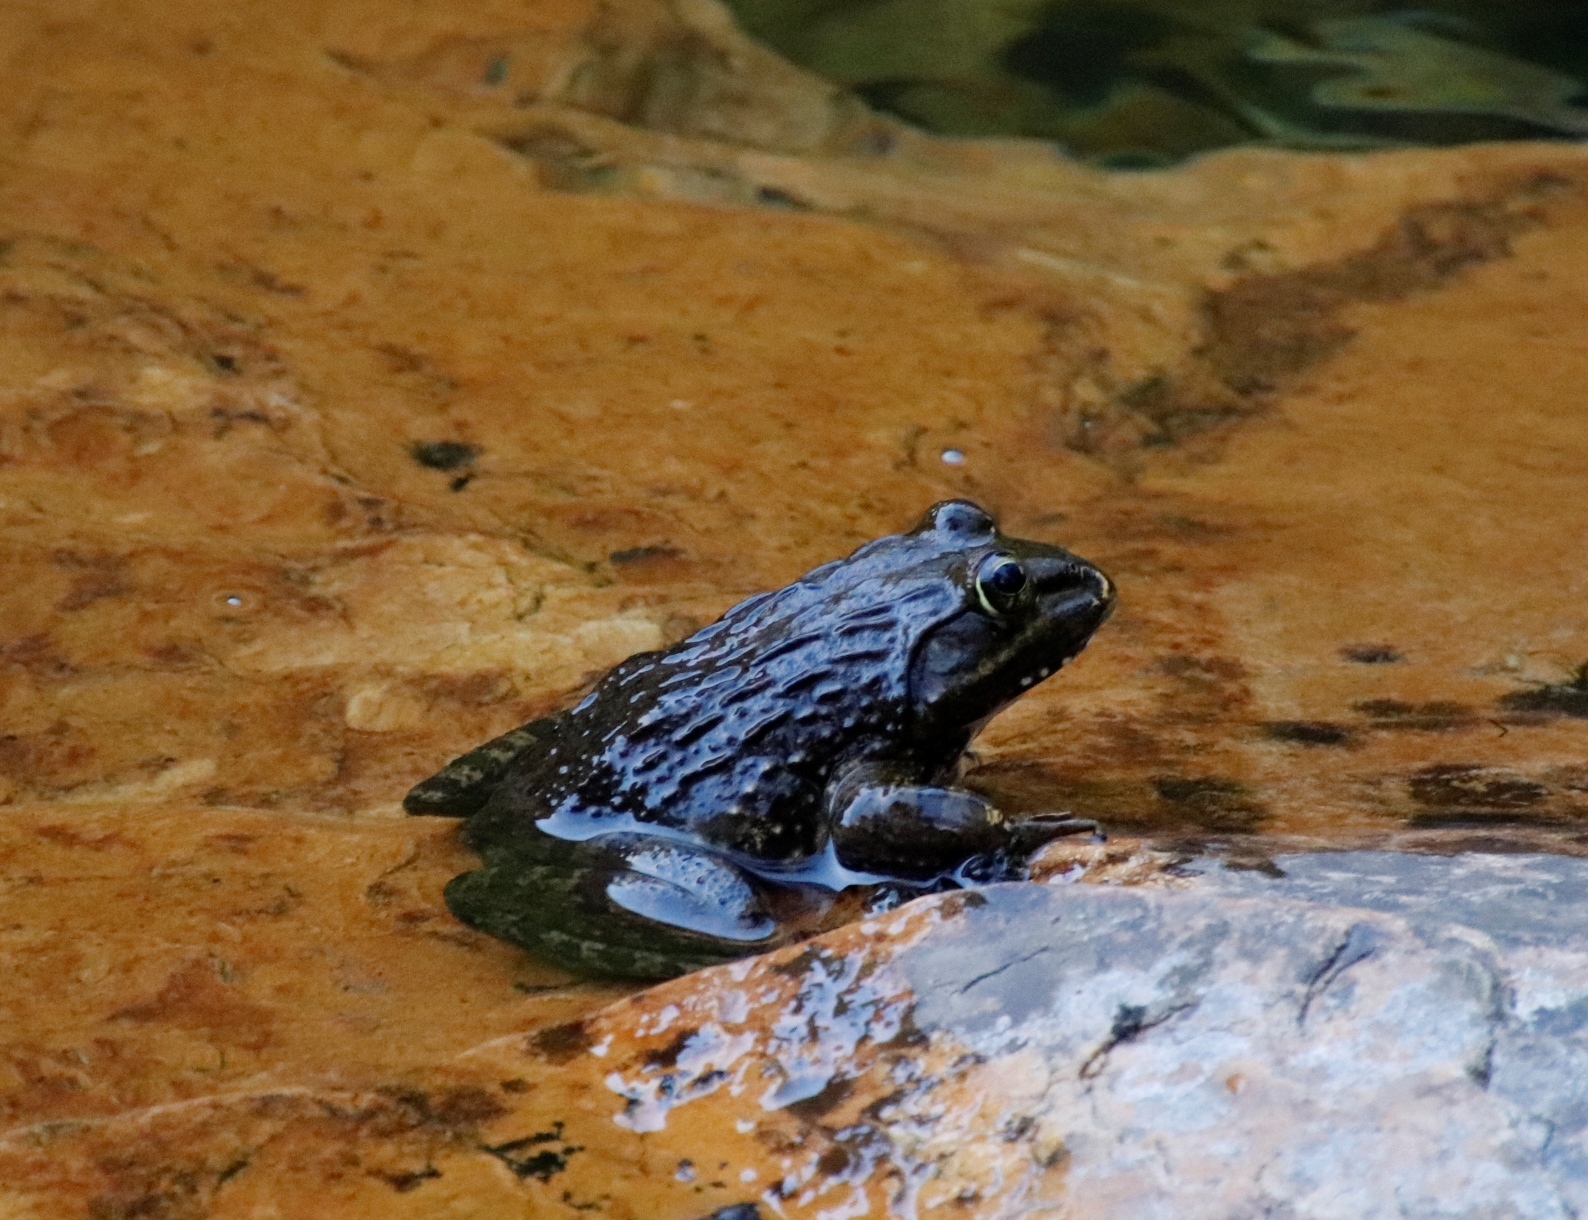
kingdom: Animalia
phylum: Chordata
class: Amphibia
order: Anura
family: Pyxicephalidae
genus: Amietia
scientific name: Amietia fuscigula
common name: Cape rana
